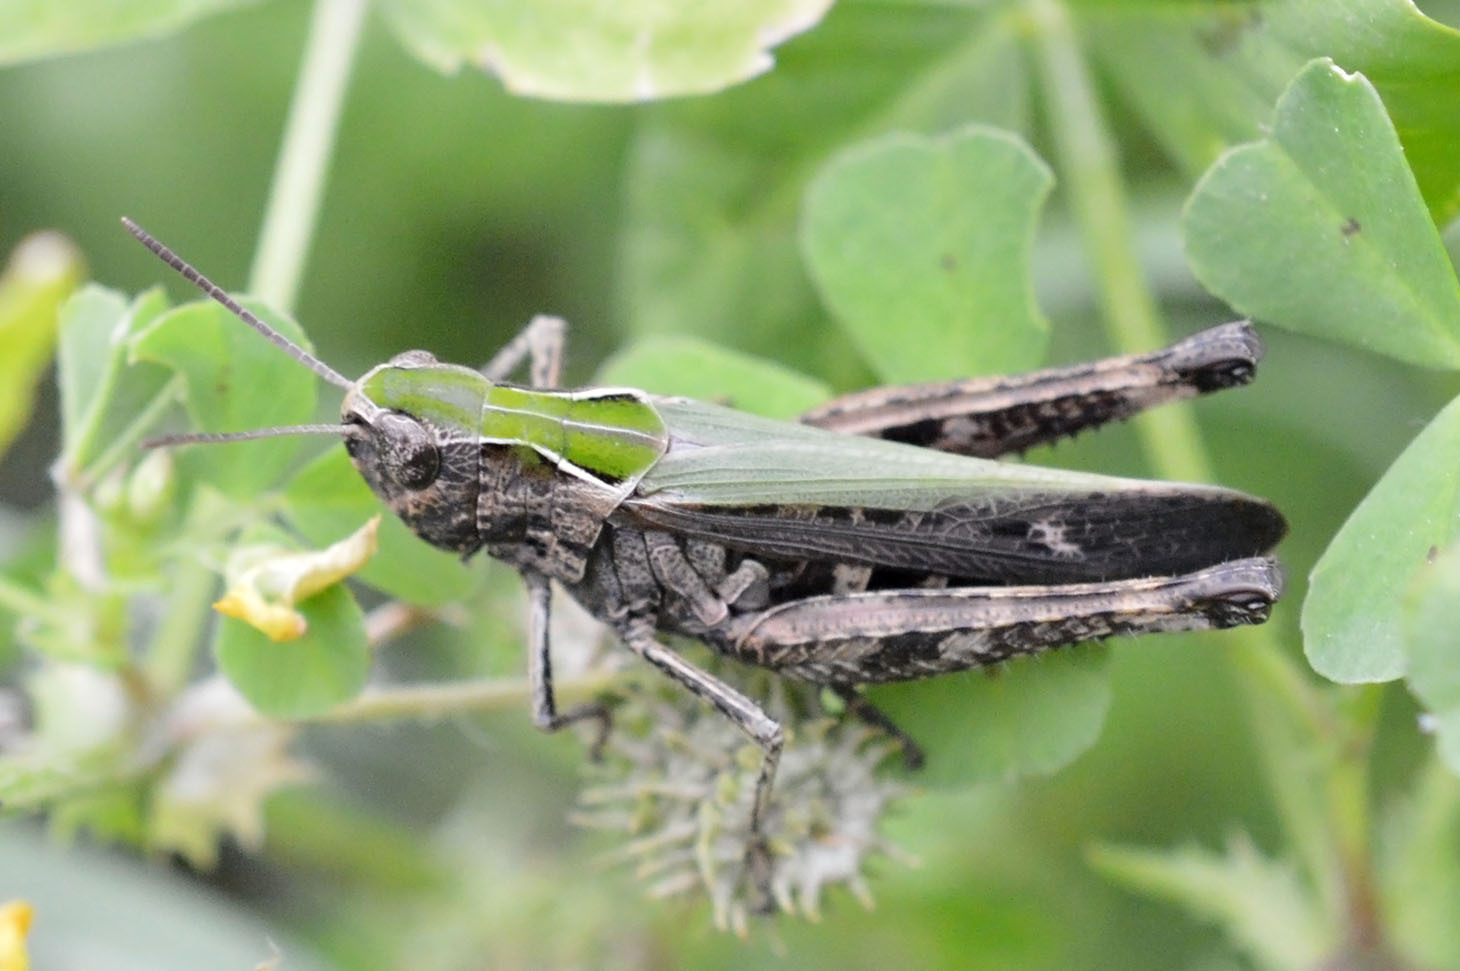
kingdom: Animalia
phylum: Arthropoda
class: Insecta
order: Orthoptera
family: Acrididae
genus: Omocestus
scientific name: Omocestus rufipes
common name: Woodland grasshopper
